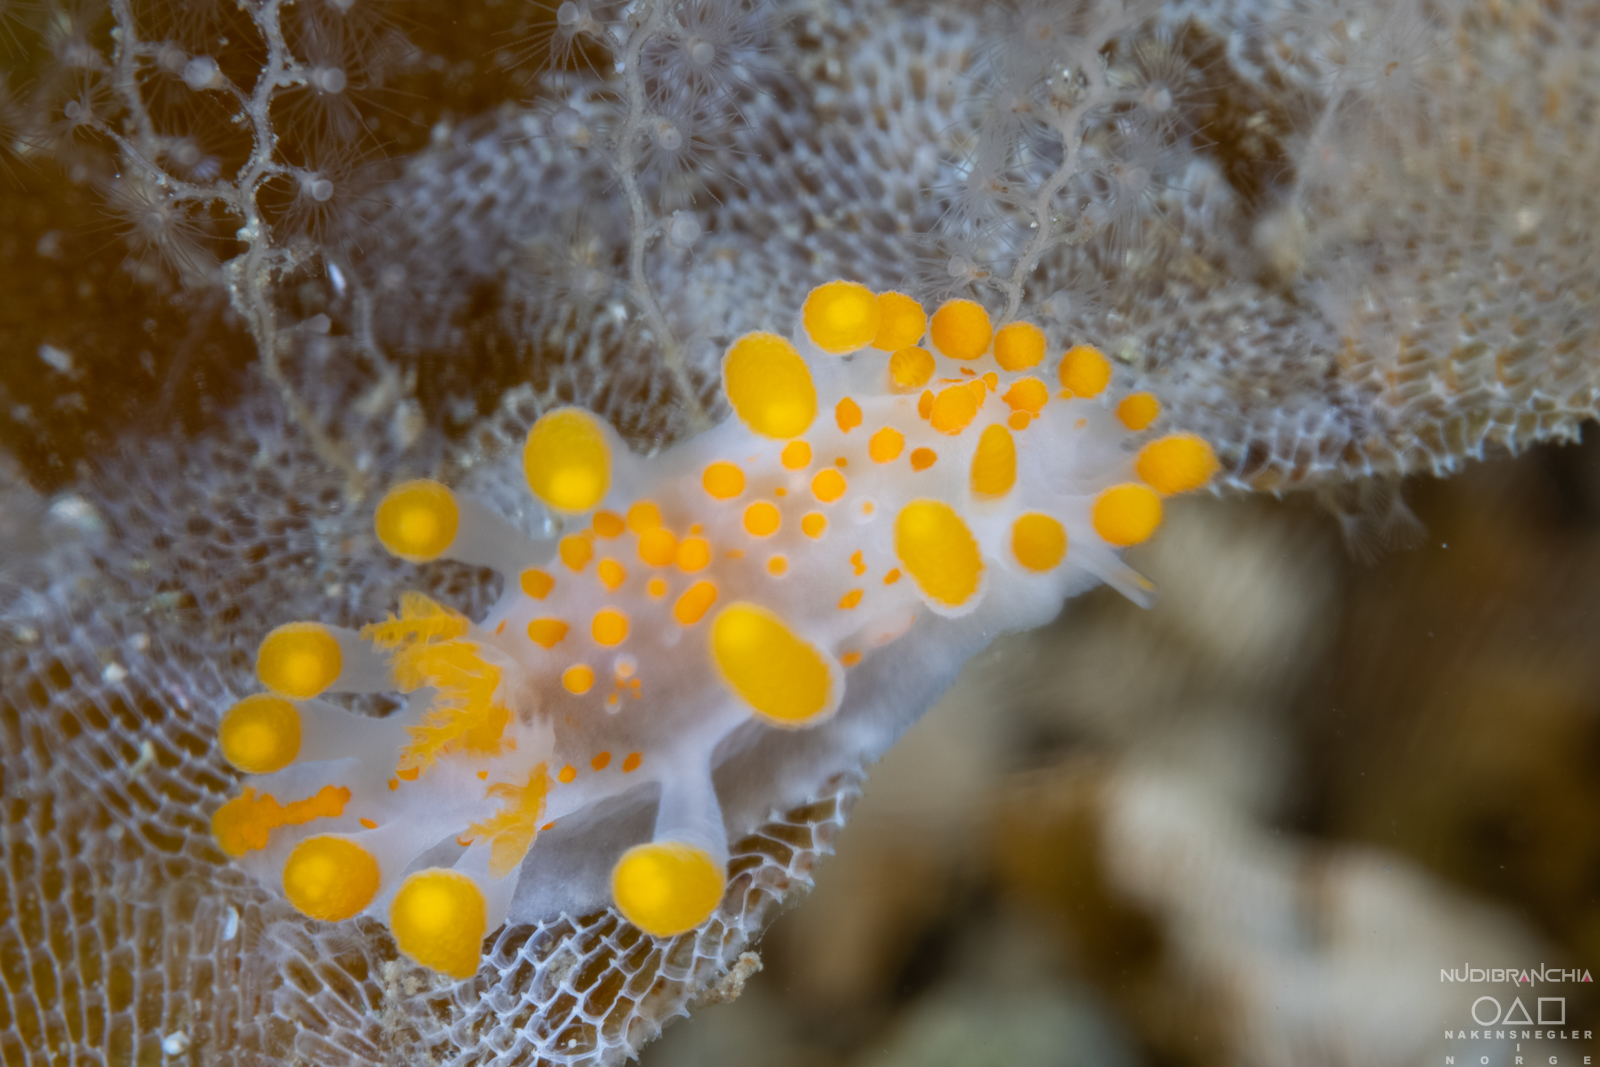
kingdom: Animalia
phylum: Mollusca
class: Gastropoda
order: Nudibranchia
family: Polyceridae
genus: Limacia
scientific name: Limacia clavigera
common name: Orange-clubbed sea slug
